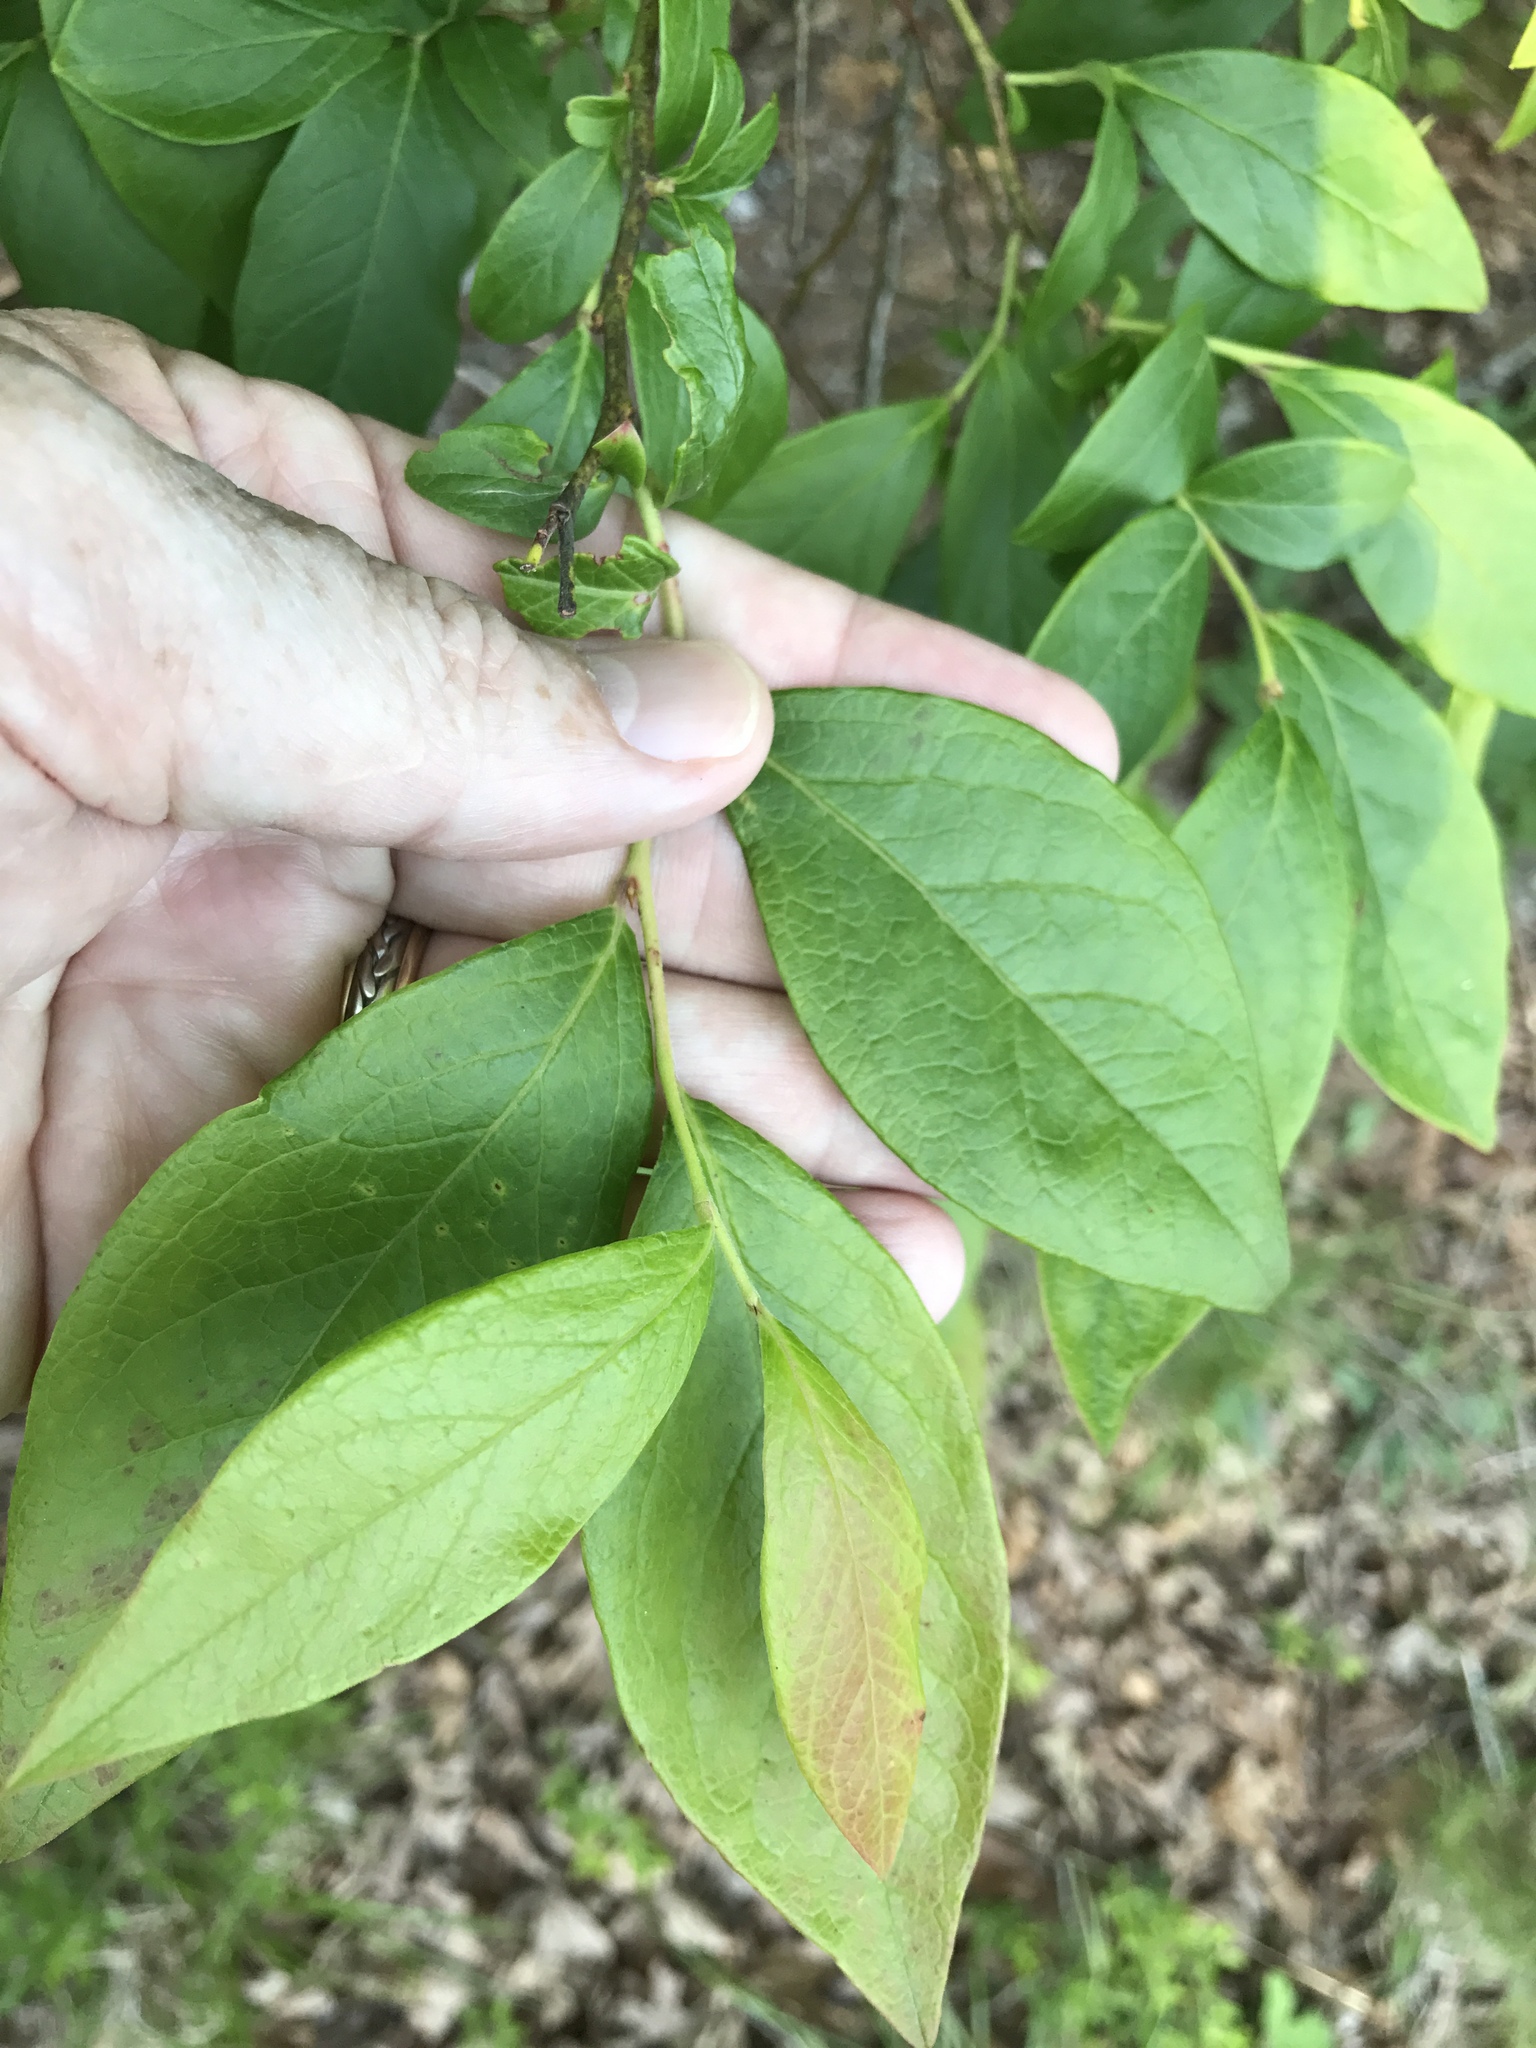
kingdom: Plantae
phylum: Tracheophyta
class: Magnoliopsida
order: Ericales
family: Ericaceae
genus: Vaccinium
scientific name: Vaccinium corymbosum
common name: Blueberry
